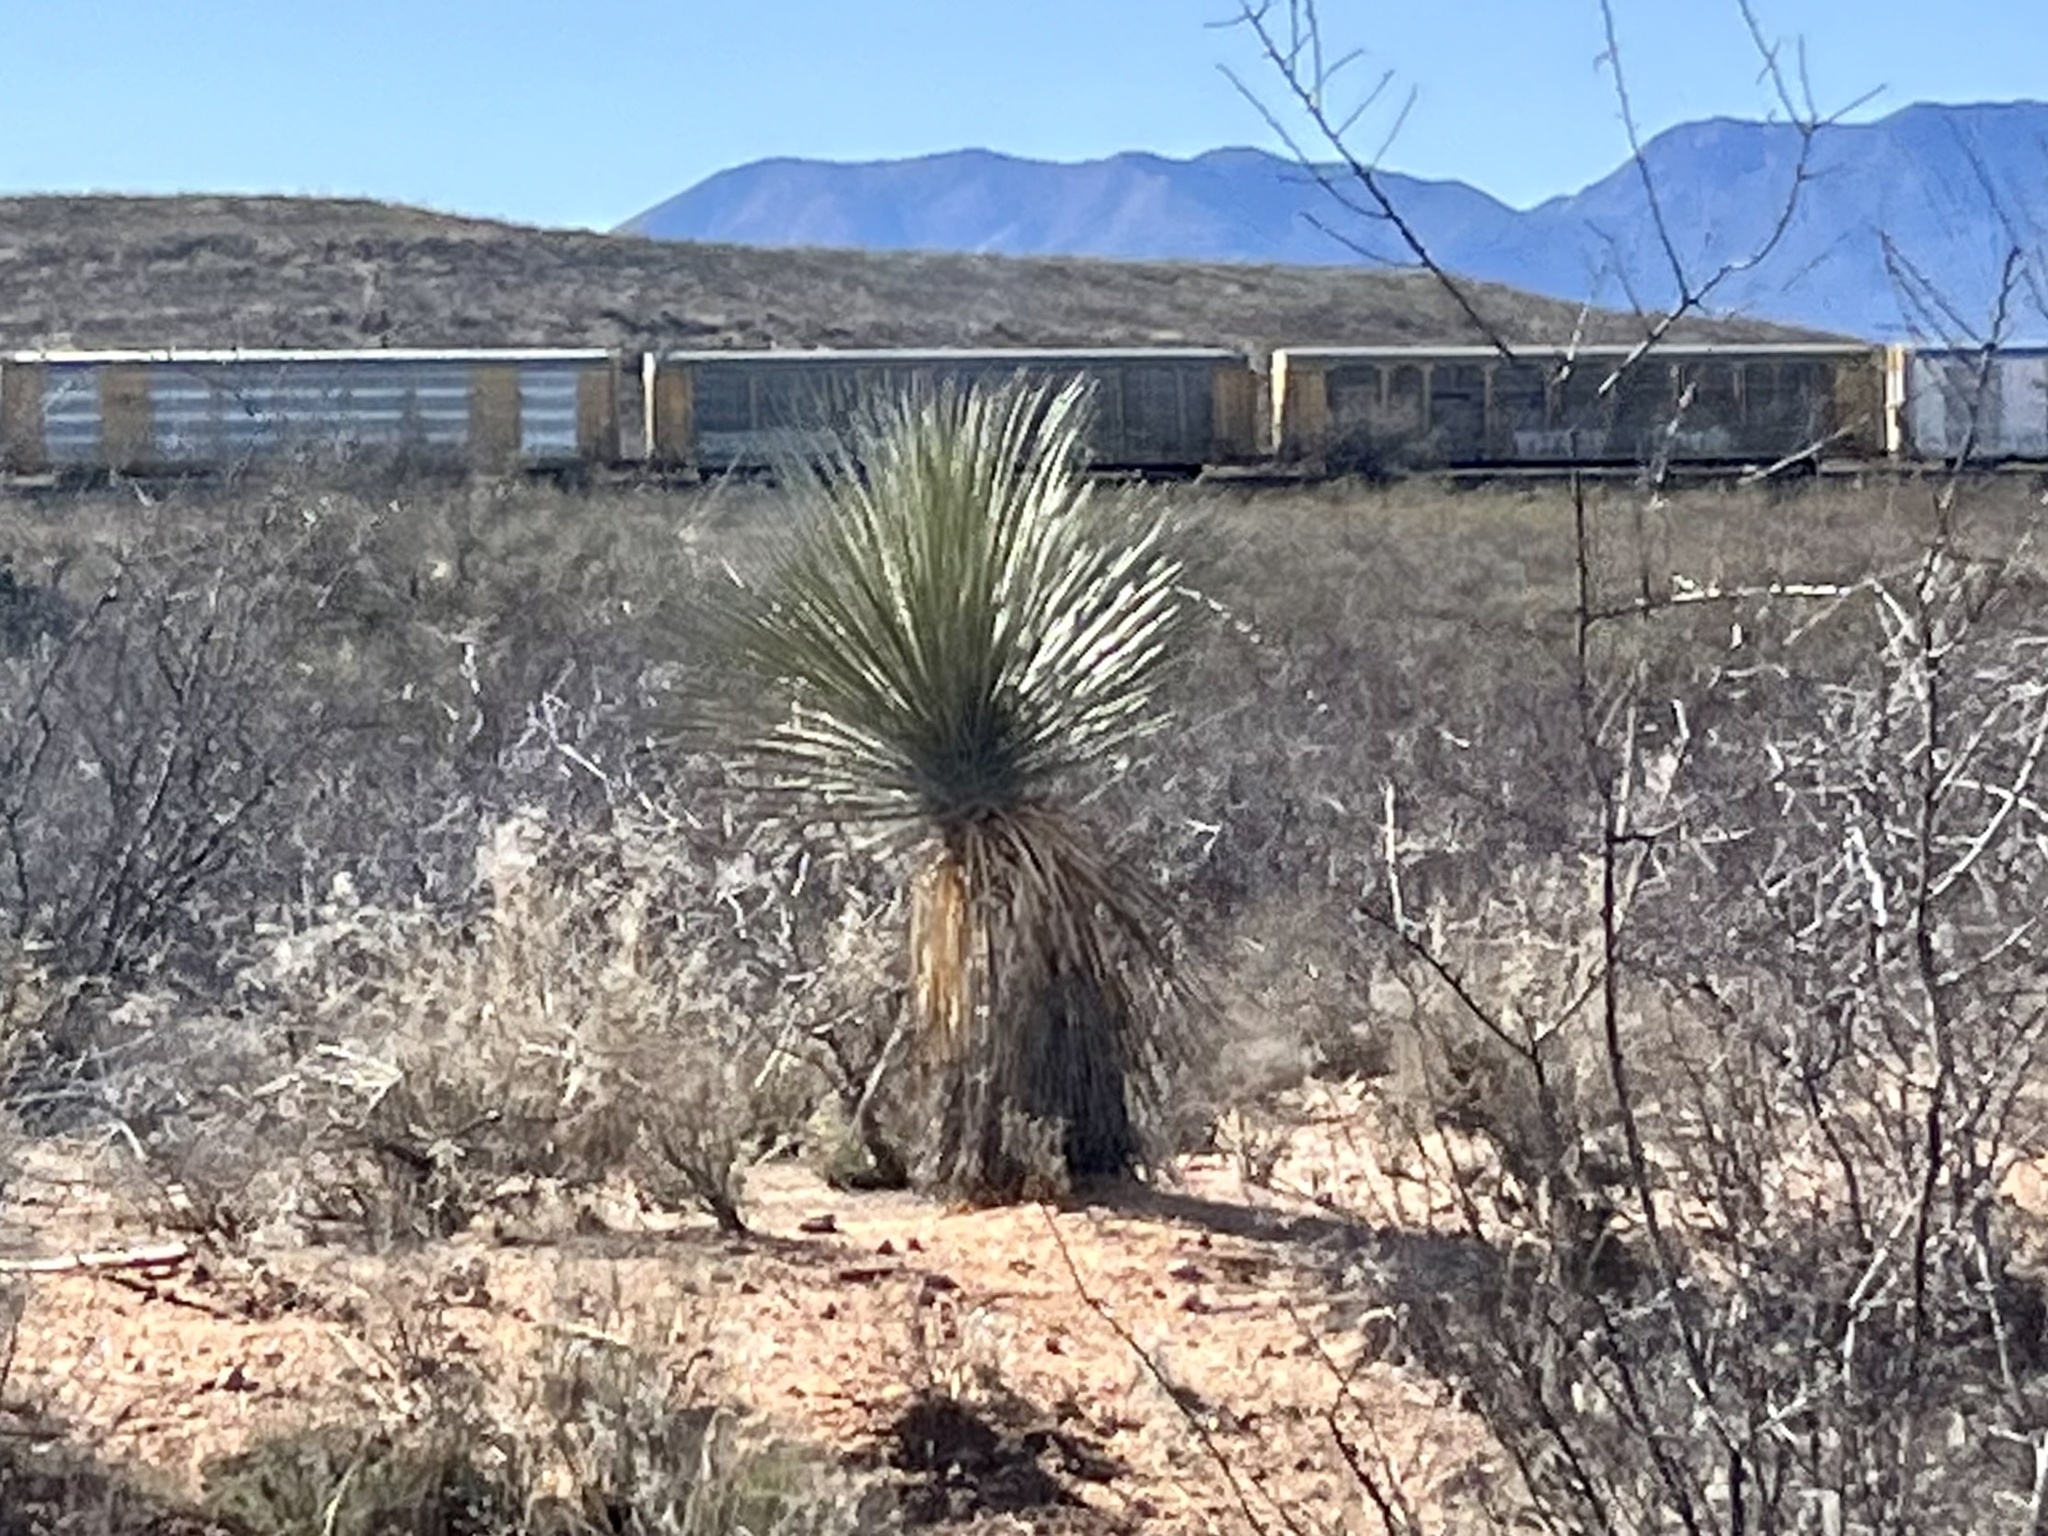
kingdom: Plantae
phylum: Tracheophyta
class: Liliopsida
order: Asparagales
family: Asparagaceae
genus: Yucca
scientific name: Yucca elata
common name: Palmella
